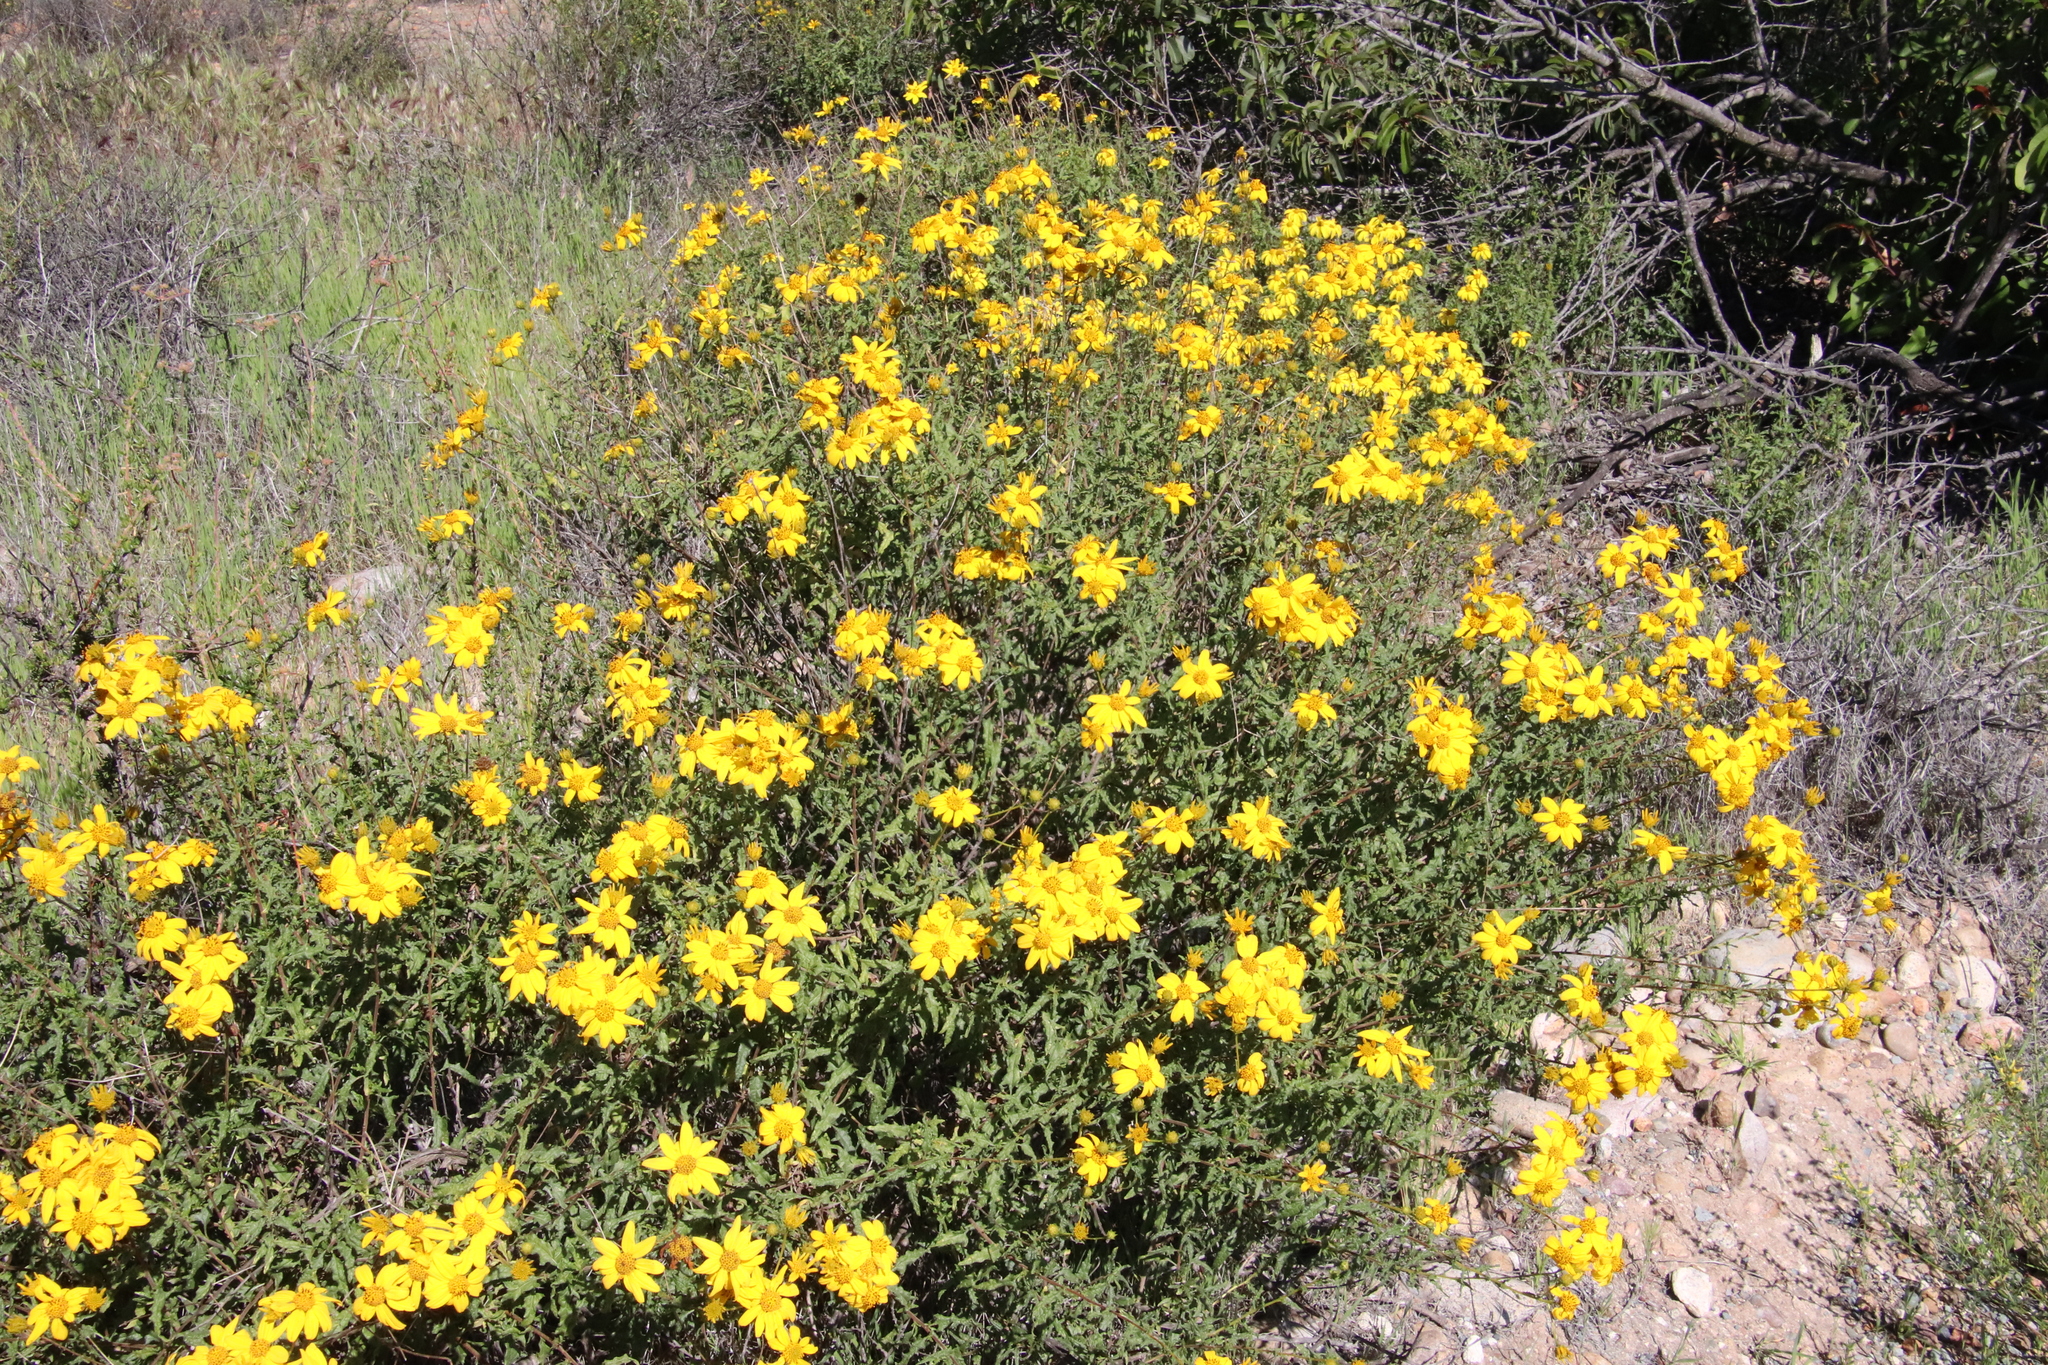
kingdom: Plantae
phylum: Tracheophyta
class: Magnoliopsida
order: Asterales
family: Asteraceae
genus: Bahiopsis
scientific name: Bahiopsis laciniata
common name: San diego county viguiera
